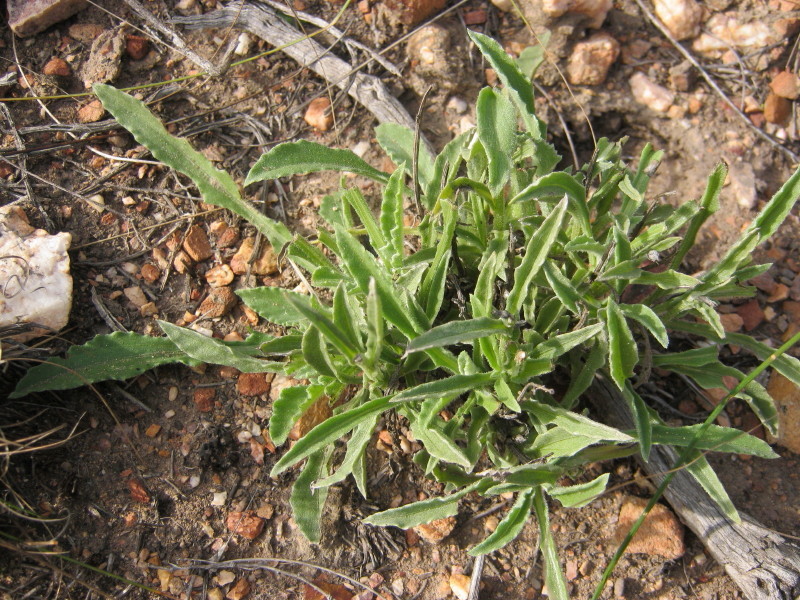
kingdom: Plantae
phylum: Tracheophyta
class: Magnoliopsida
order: Asterales
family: Asteraceae
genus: Arctotis
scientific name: Arctotis lanceolata
